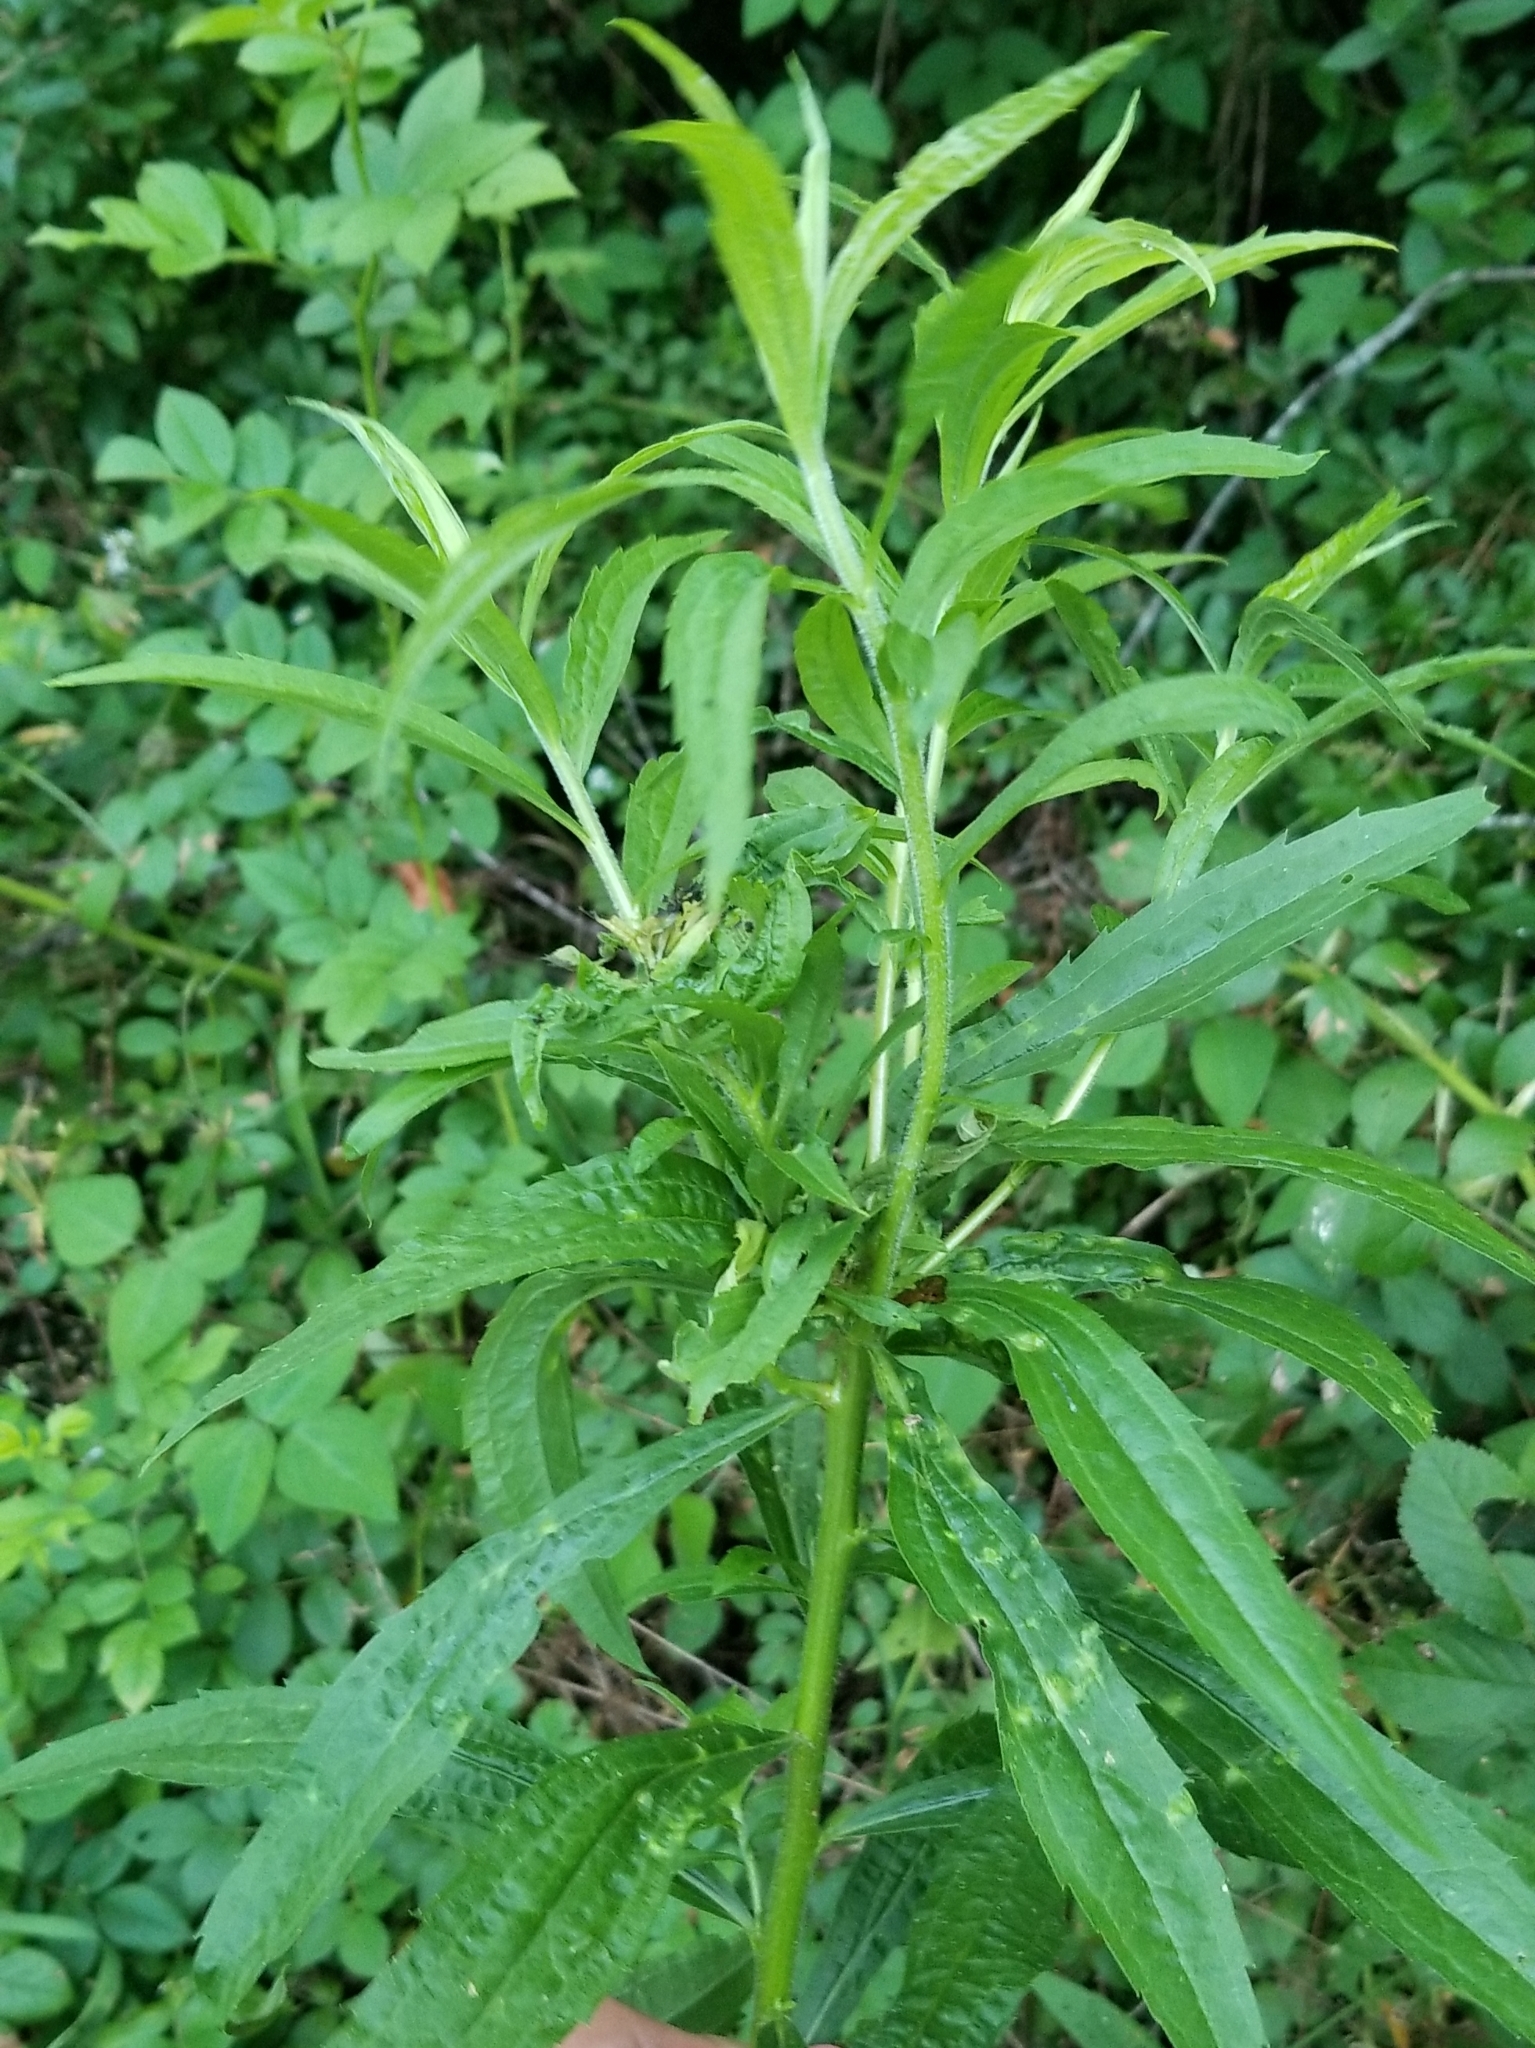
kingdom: Animalia
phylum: Arthropoda
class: Insecta
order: Diptera
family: Cecidomyiidae
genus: Dasineura
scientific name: Dasineura folliculi
